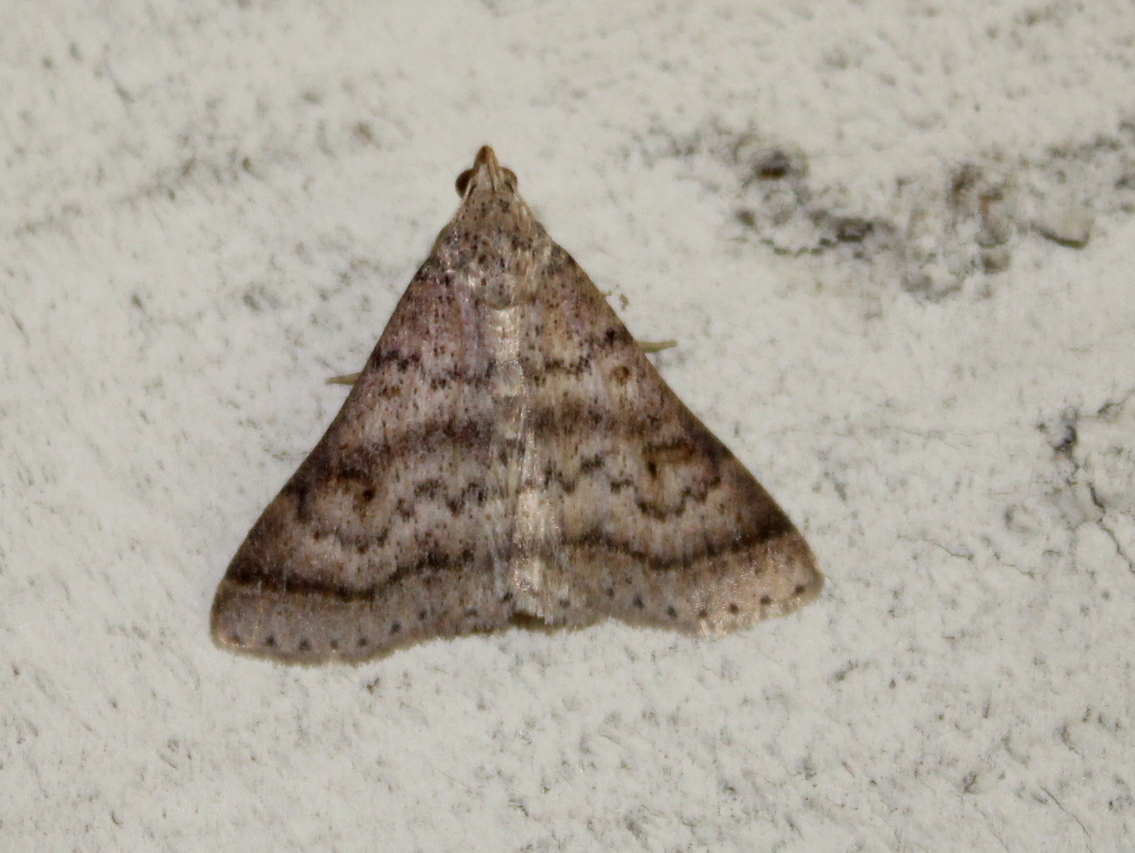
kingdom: Animalia
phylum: Arthropoda
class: Insecta
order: Lepidoptera
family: Erebidae
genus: Bleptina
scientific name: Bleptina caradrinalis
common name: Bent-winged owlet
